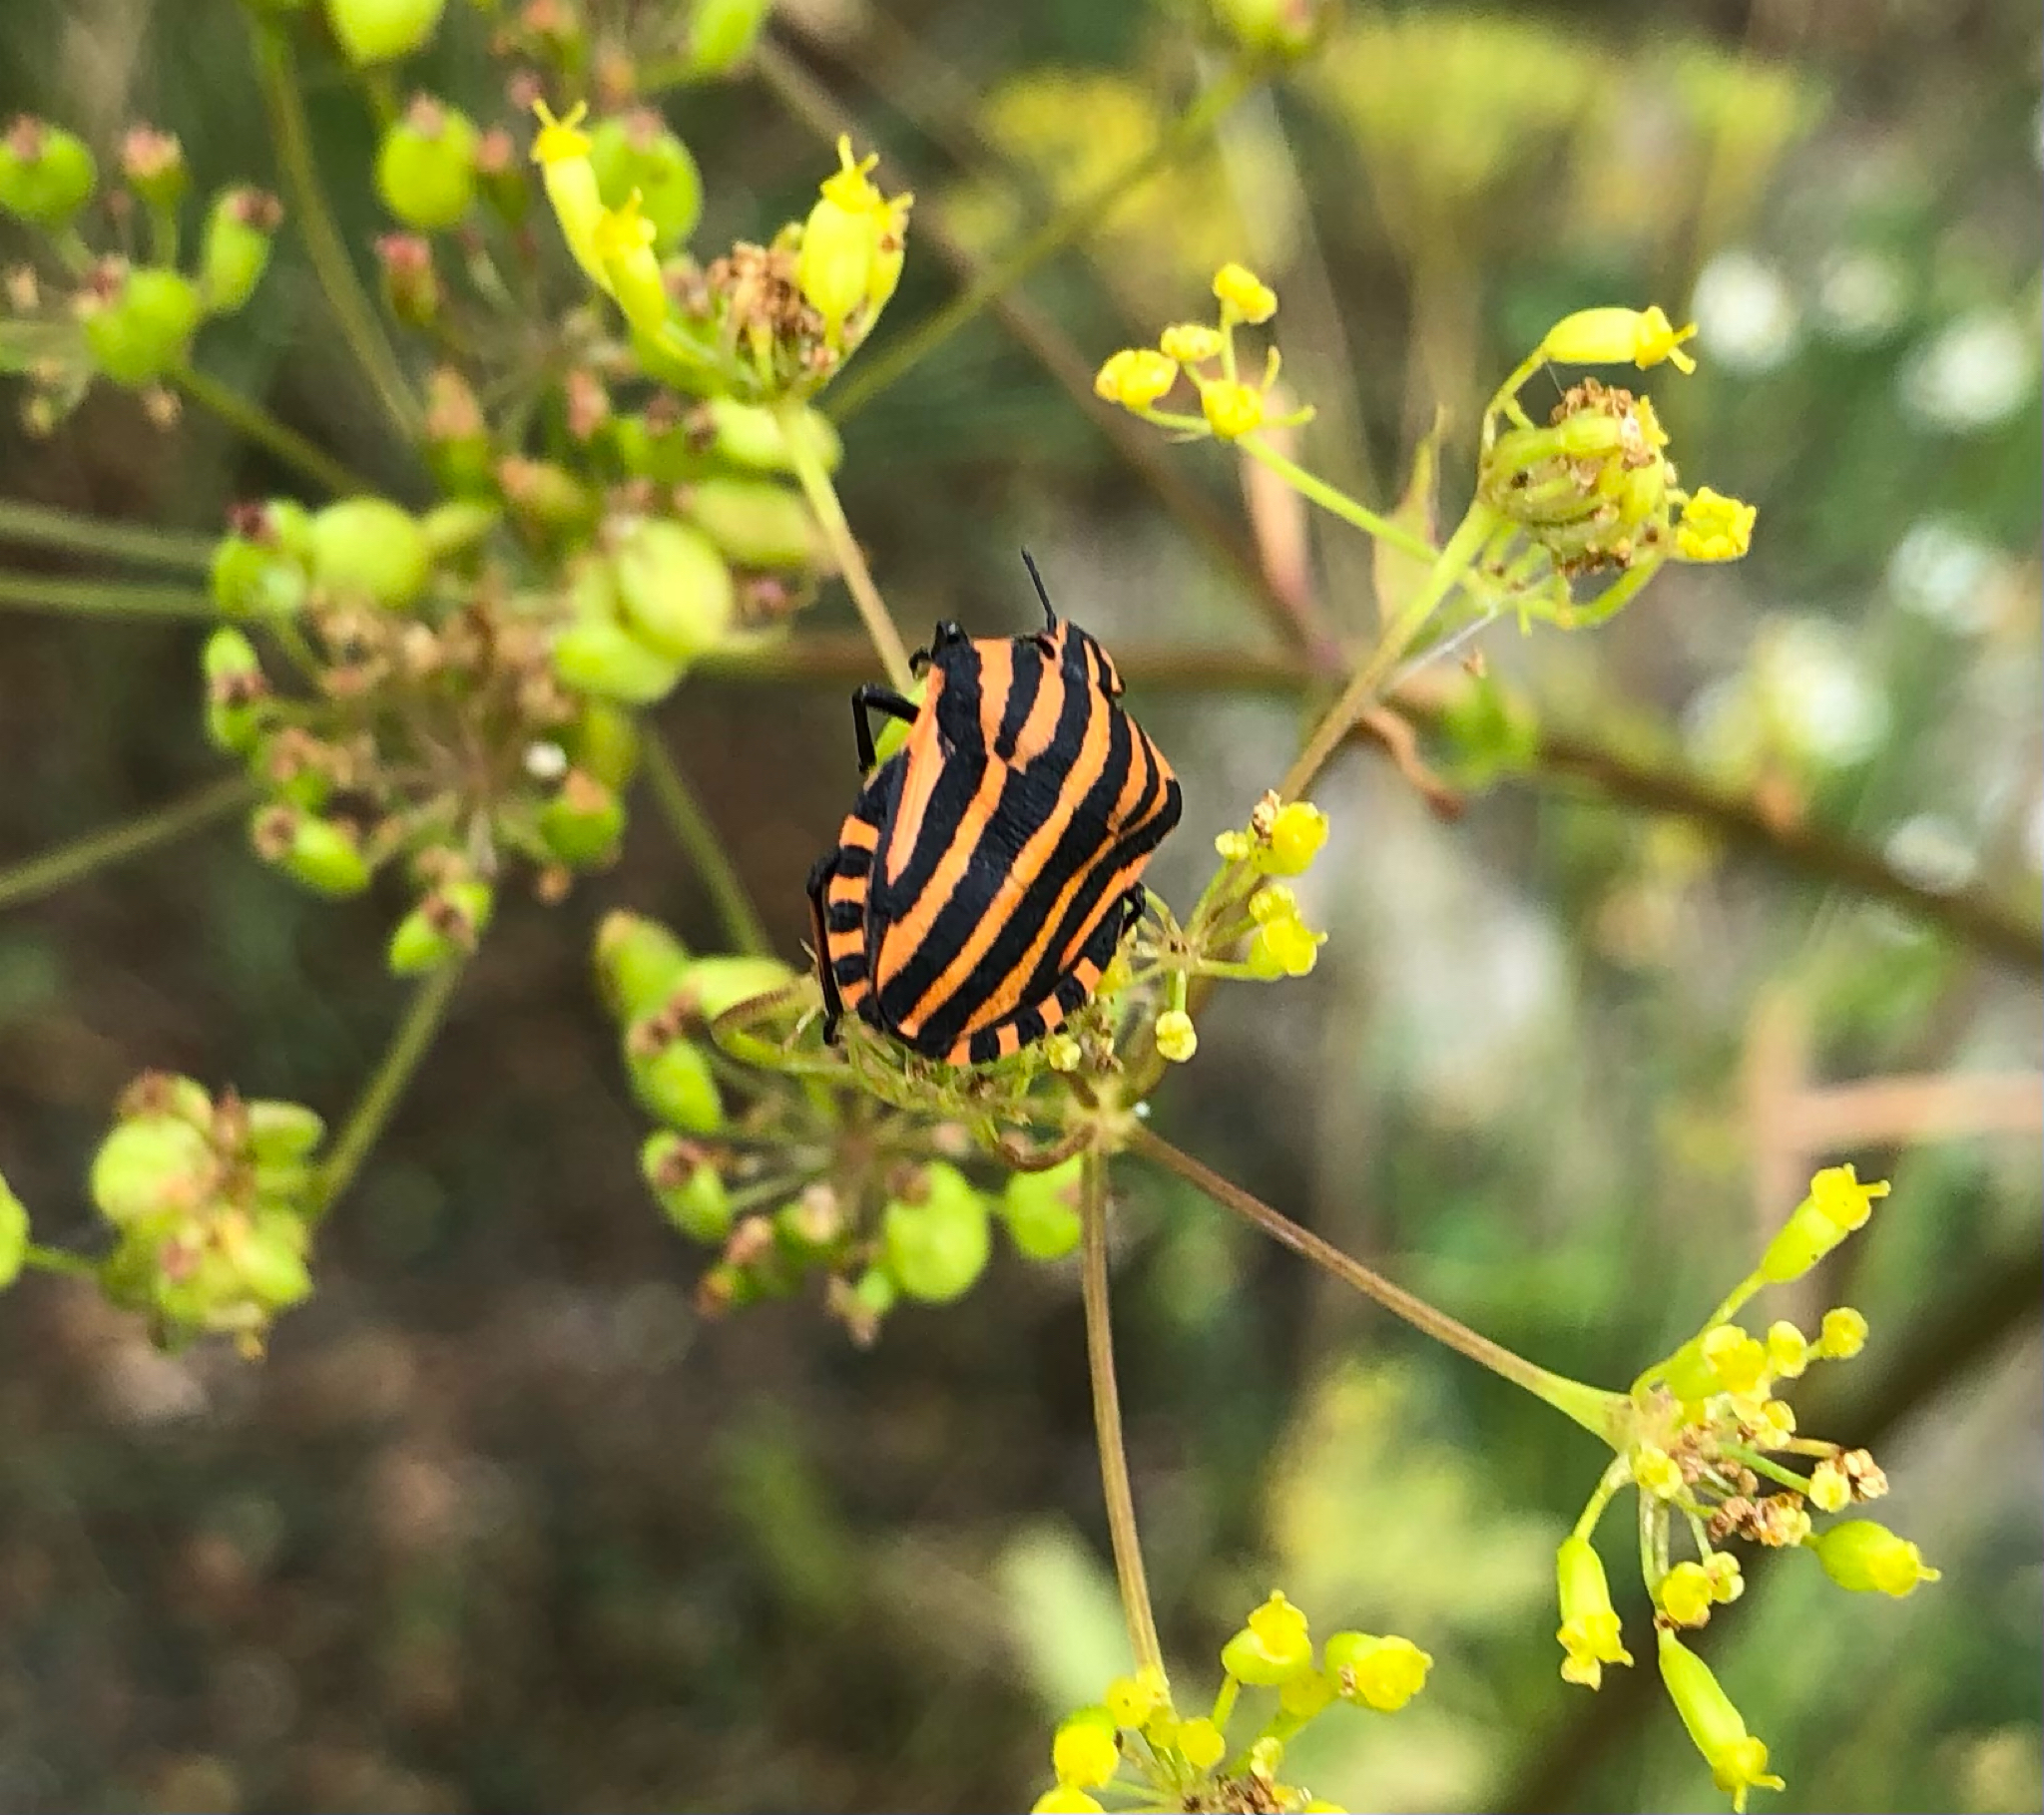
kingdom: Animalia
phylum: Arthropoda
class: Insecta
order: Hemiptera
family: Pentatomidae
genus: Graphosoma
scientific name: Graphosoma italicum
